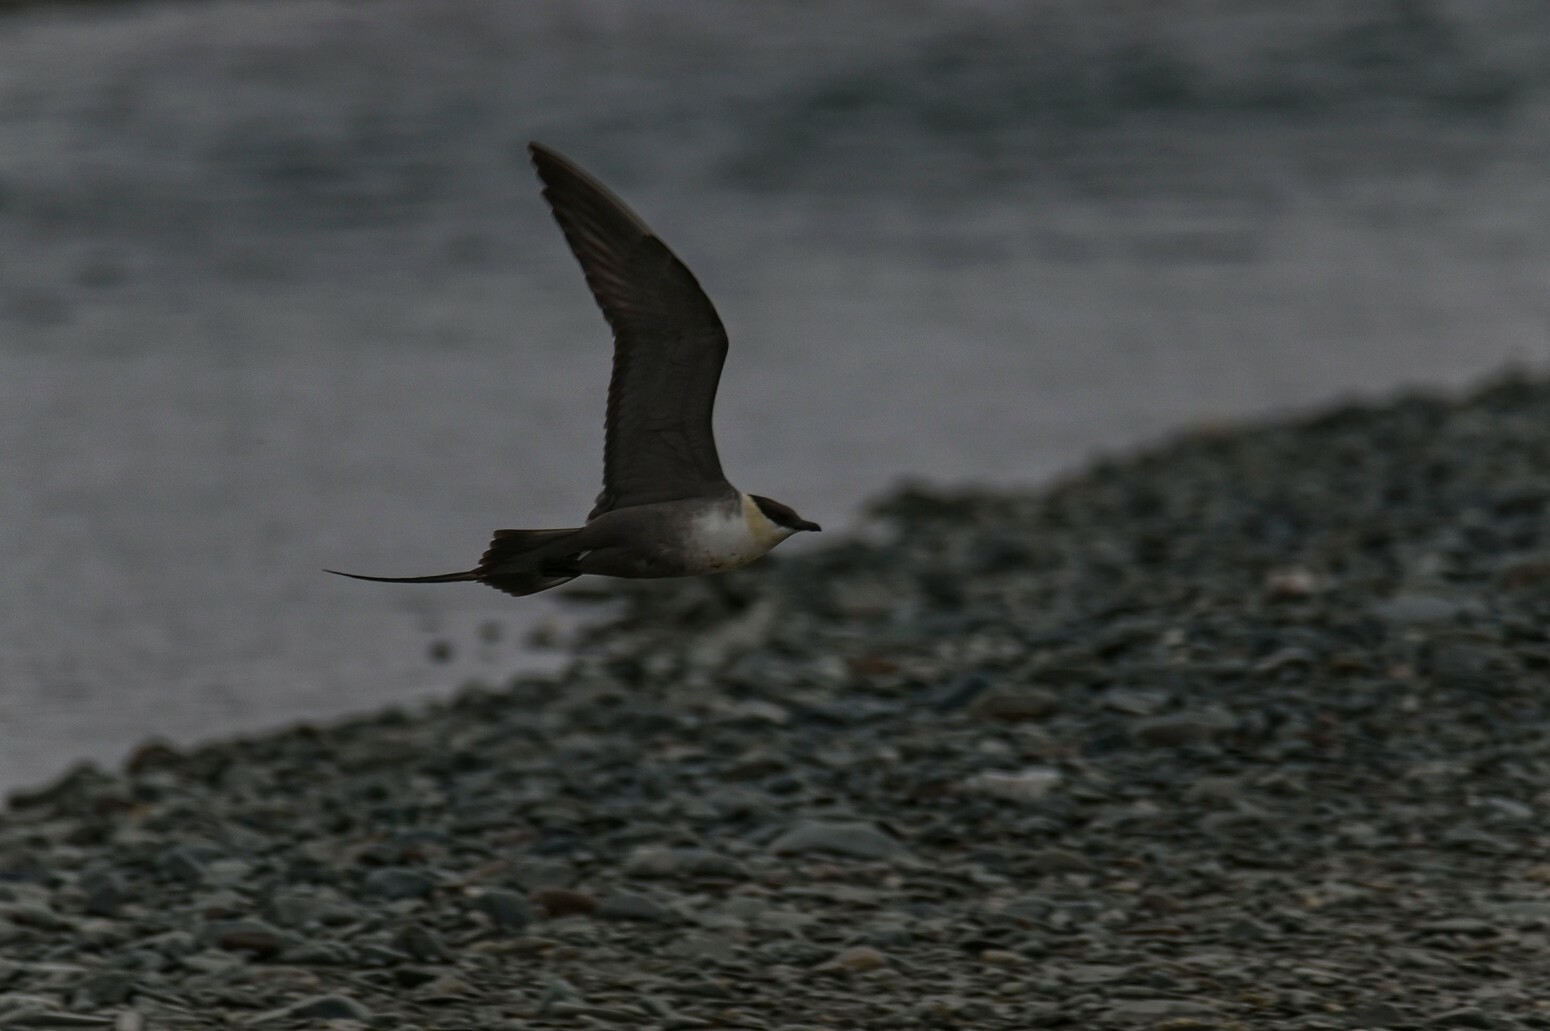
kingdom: Animalia
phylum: Chordata
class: Aves
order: Charadriiformes
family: Stercorariidae
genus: Stercorarius
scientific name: Stercorarius longicaudus
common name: Long-tailed jaeger
